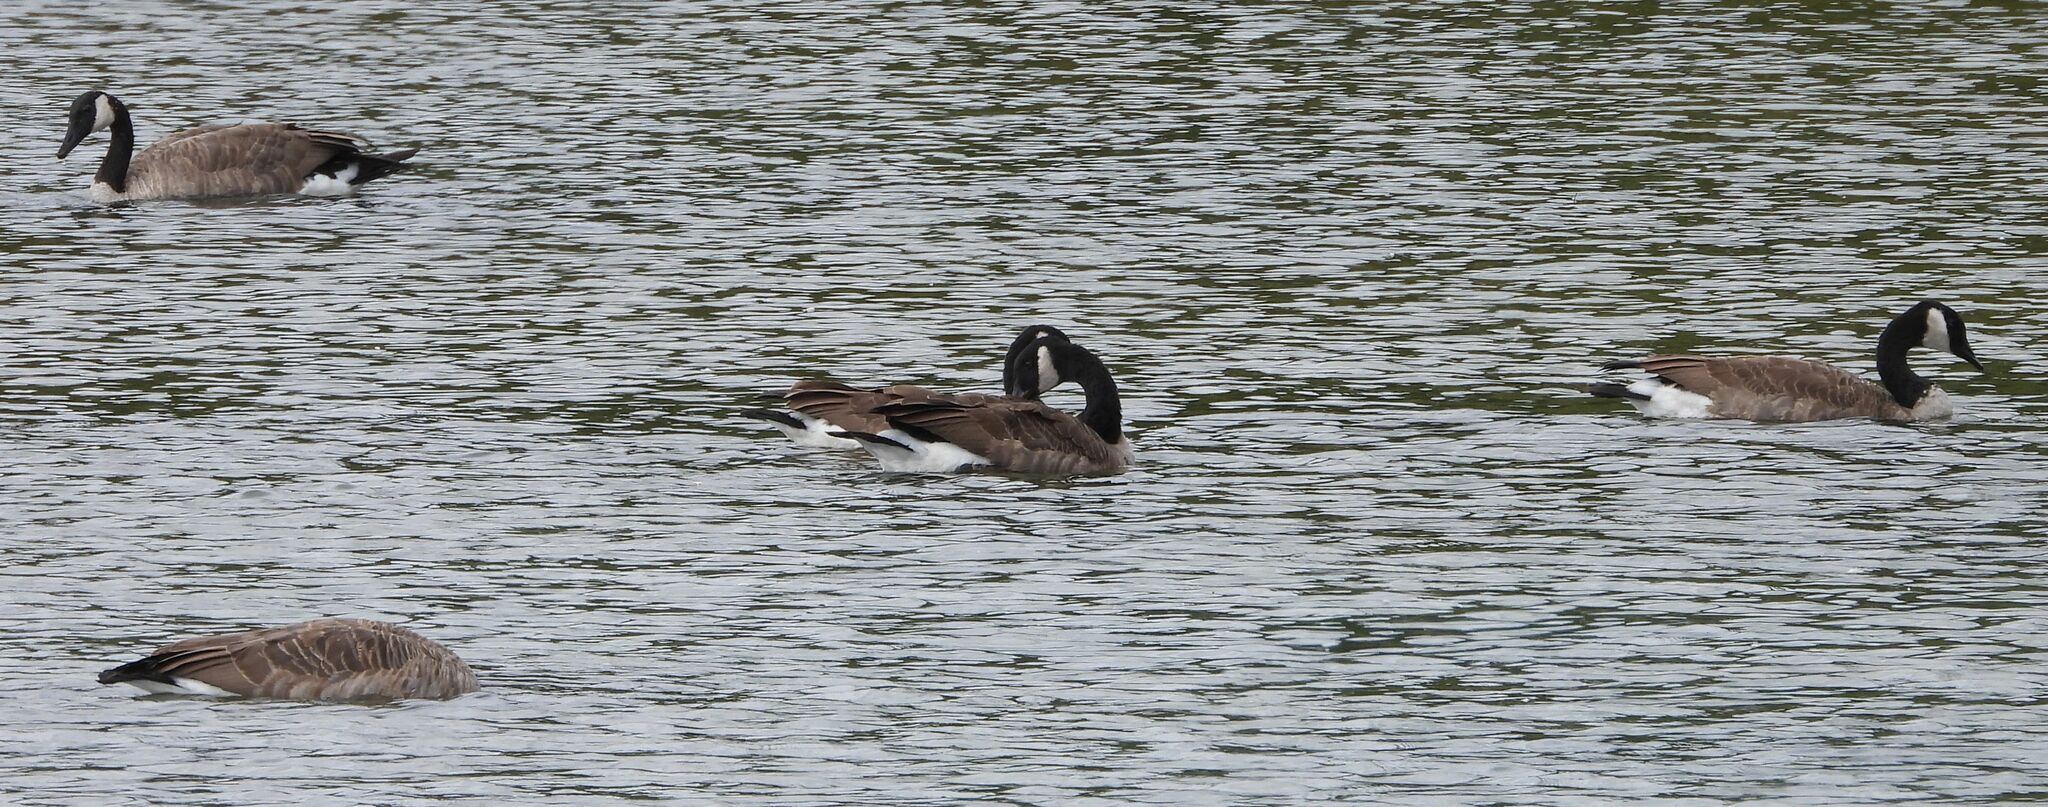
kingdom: Animalia
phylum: Chordata
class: Aves
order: Anseriformes
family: Anatidae
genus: Branta
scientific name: Branta canadensis
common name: Canada goose
